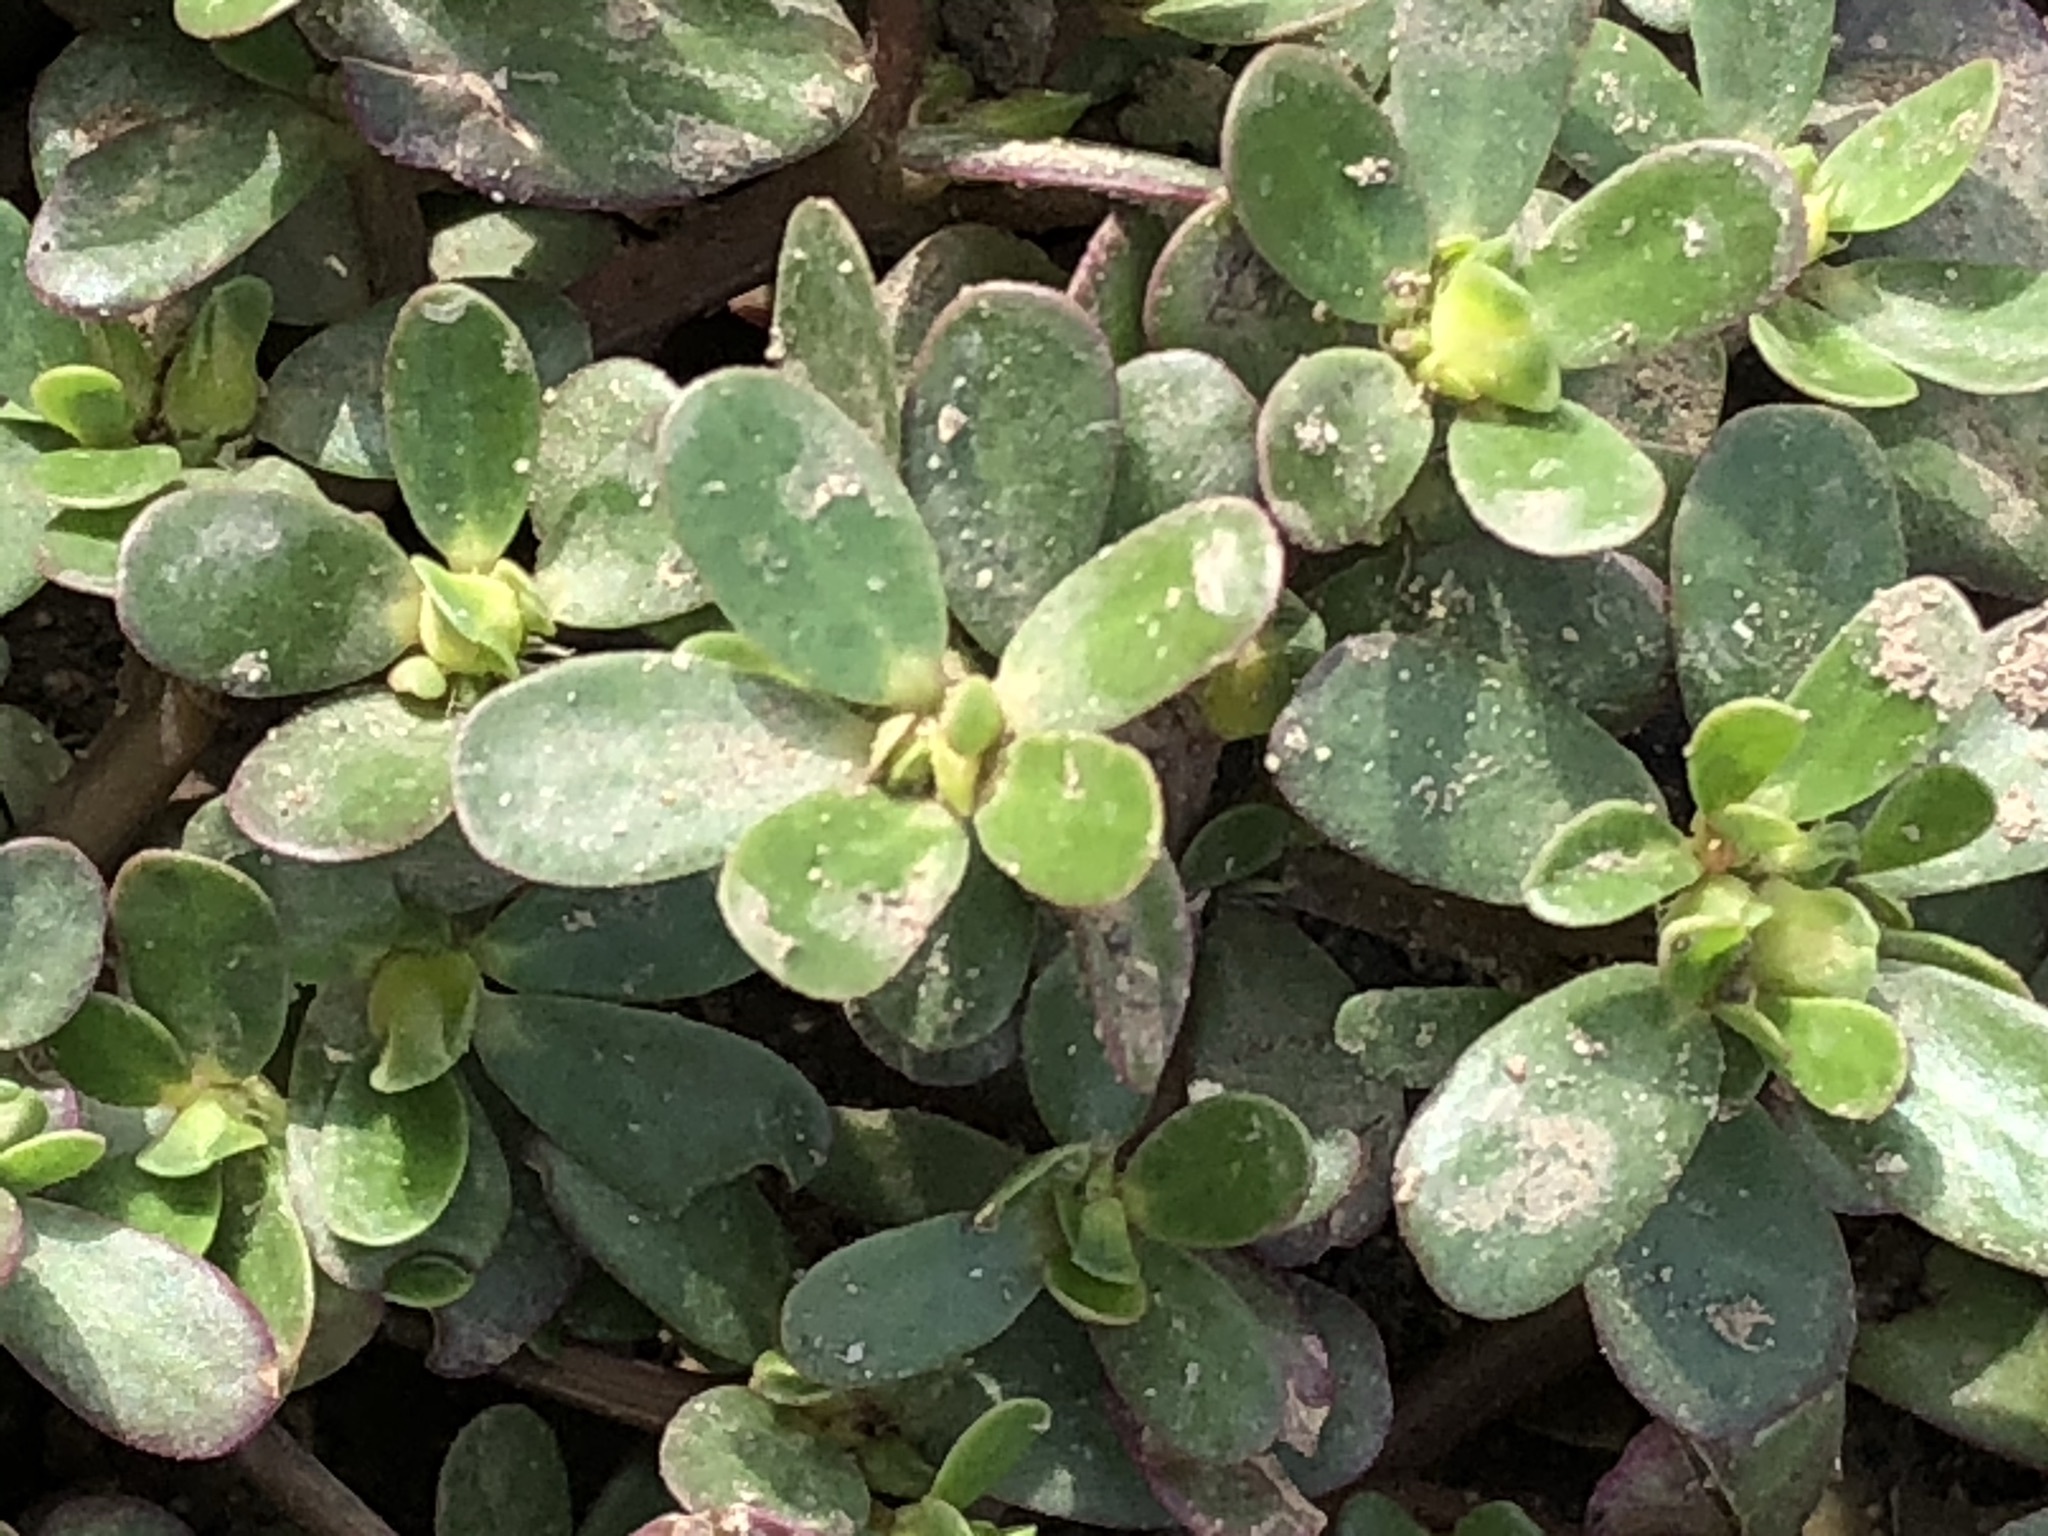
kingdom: Plantae
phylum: Tracheophyta
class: Magnoliopsida
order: Caryophyllales
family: Portulacaceae
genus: Portulaca
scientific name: Portulaca oleracea
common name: Common purslane
